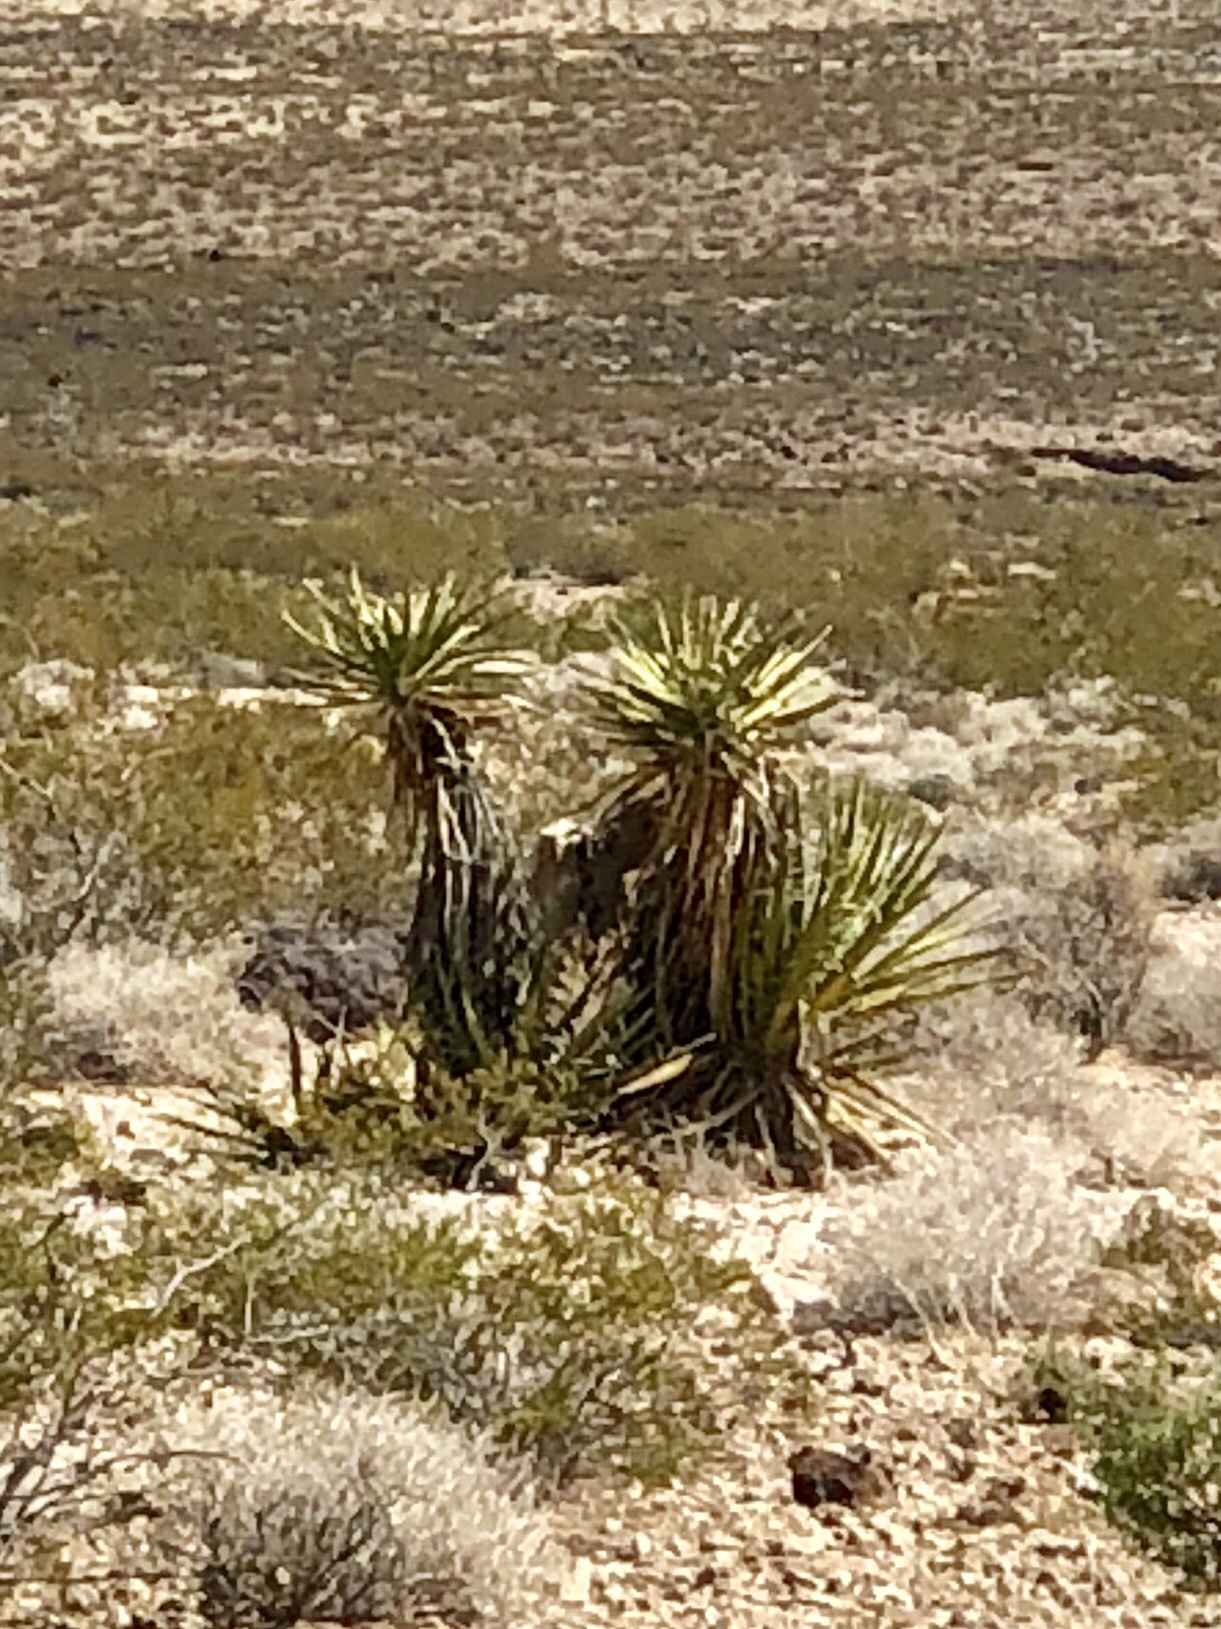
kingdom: Plantae
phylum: Tracheophyta
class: Liliopsida
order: Asparagales
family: Asparagaceae
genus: Yucca
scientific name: Yucca schidigera
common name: Mojave yucca
